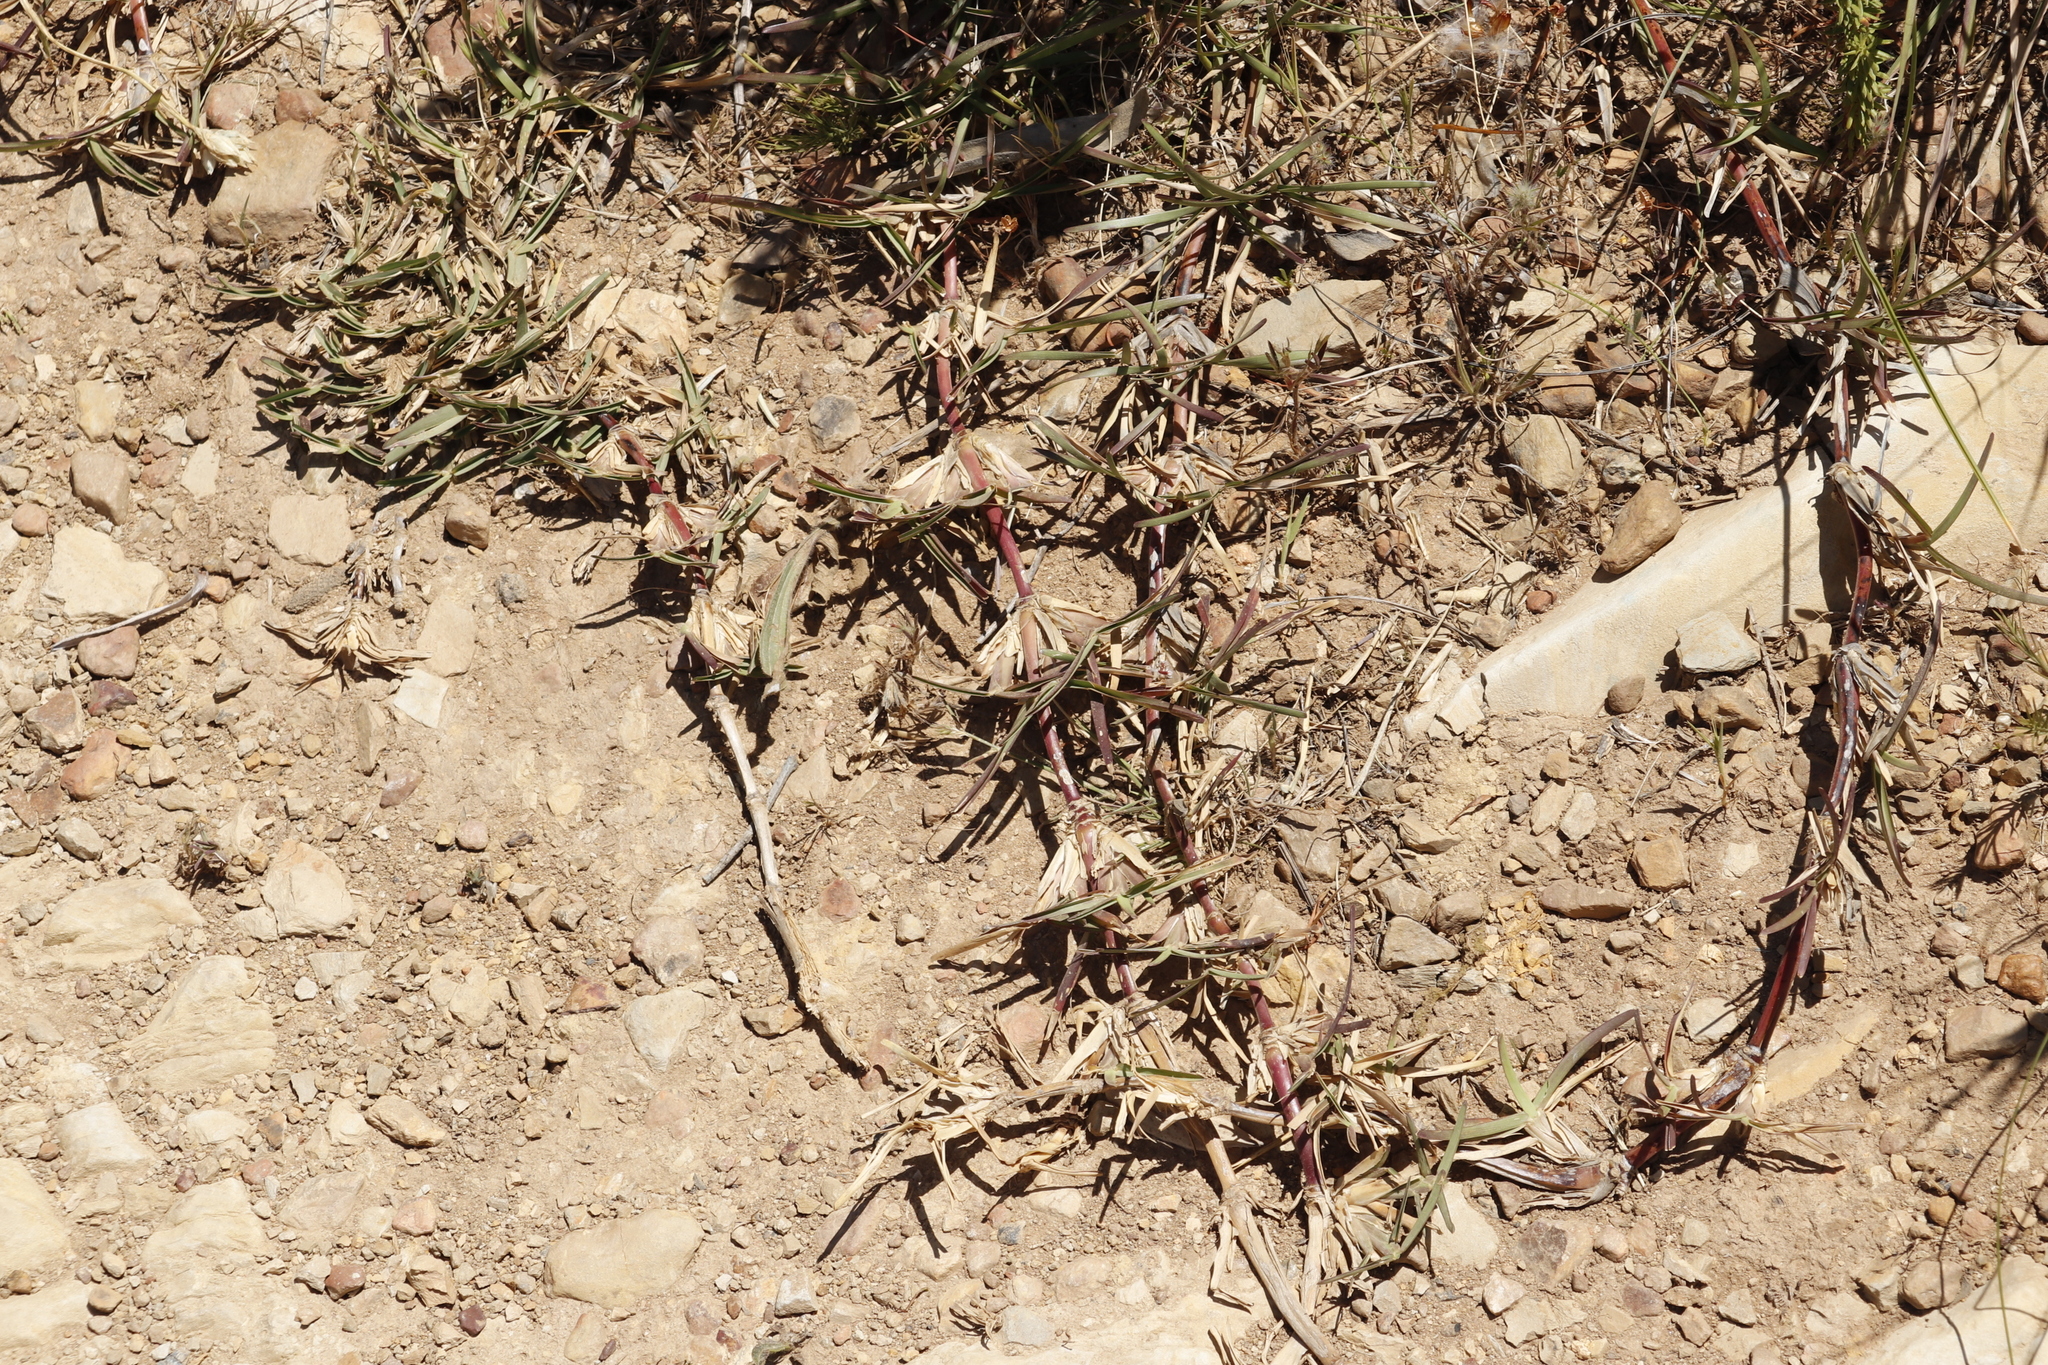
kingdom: Plantae
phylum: Tracheophyta
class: Liliopsida
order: Poales
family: Poaceae
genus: Stenotaphrum
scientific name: Stenotaphrum secundatum
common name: St. augustine grass
